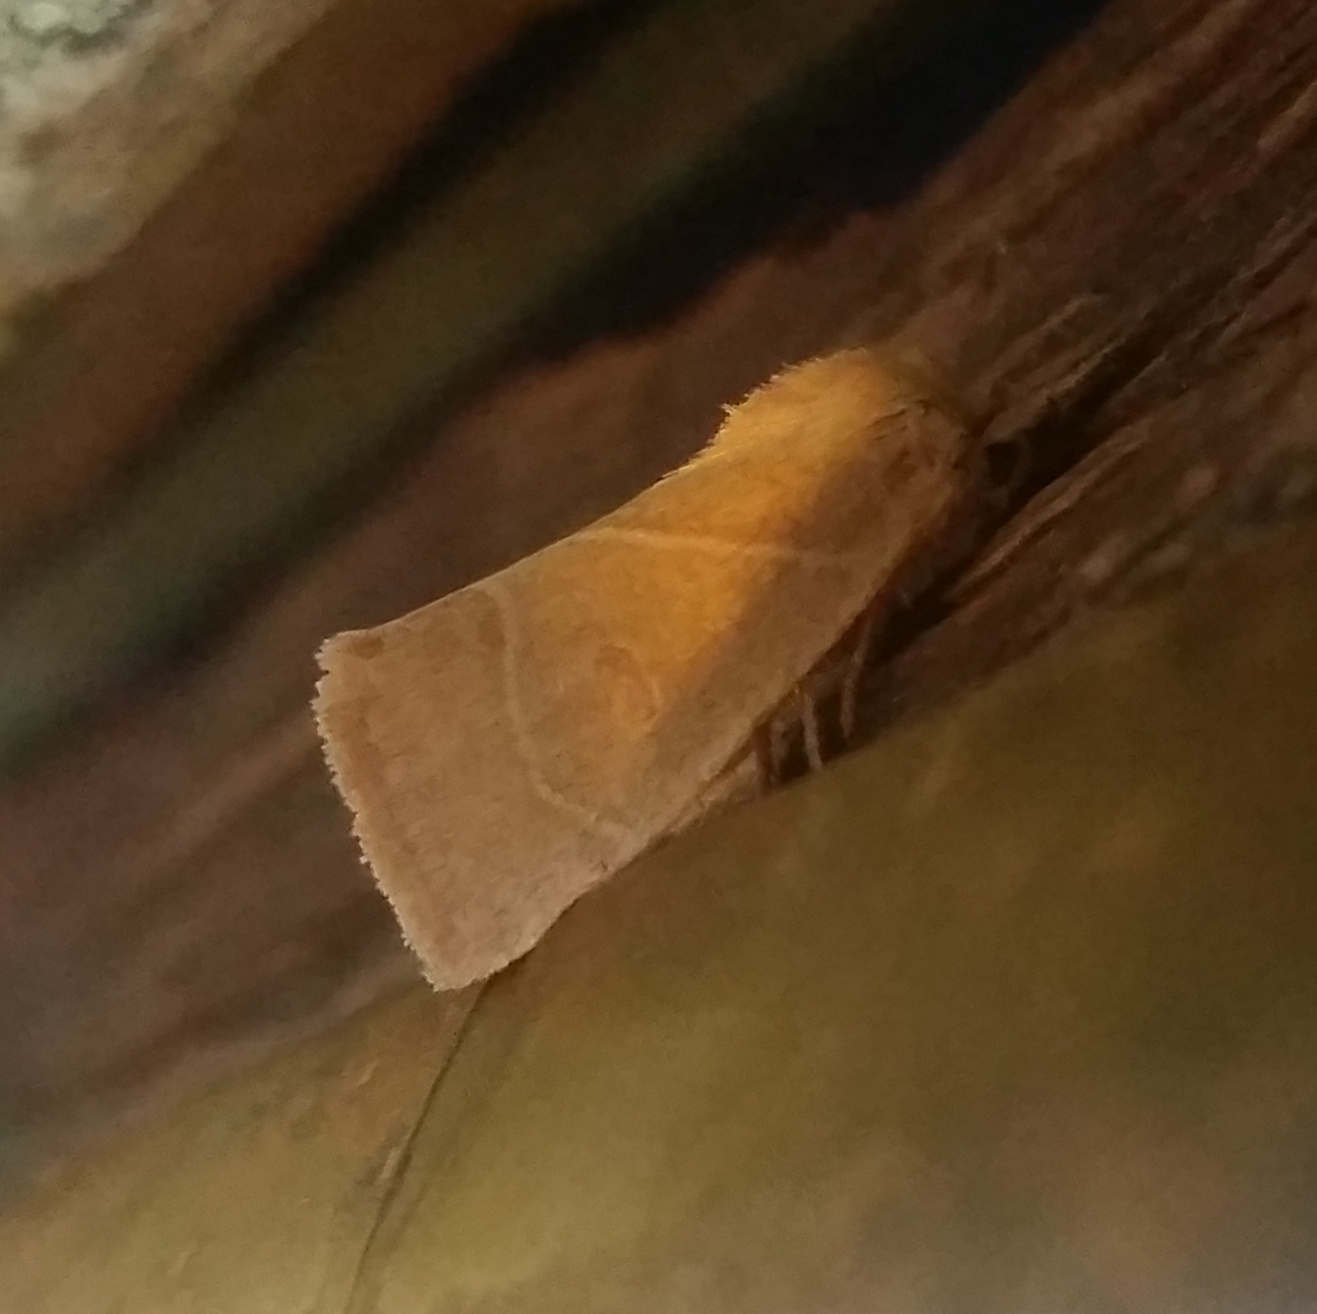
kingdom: Animalia
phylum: Arthropoda
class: Insecta
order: Lepidoptera
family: Noctuidae
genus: Cosmia
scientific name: Cosmia calami
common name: American dun-bar moth
